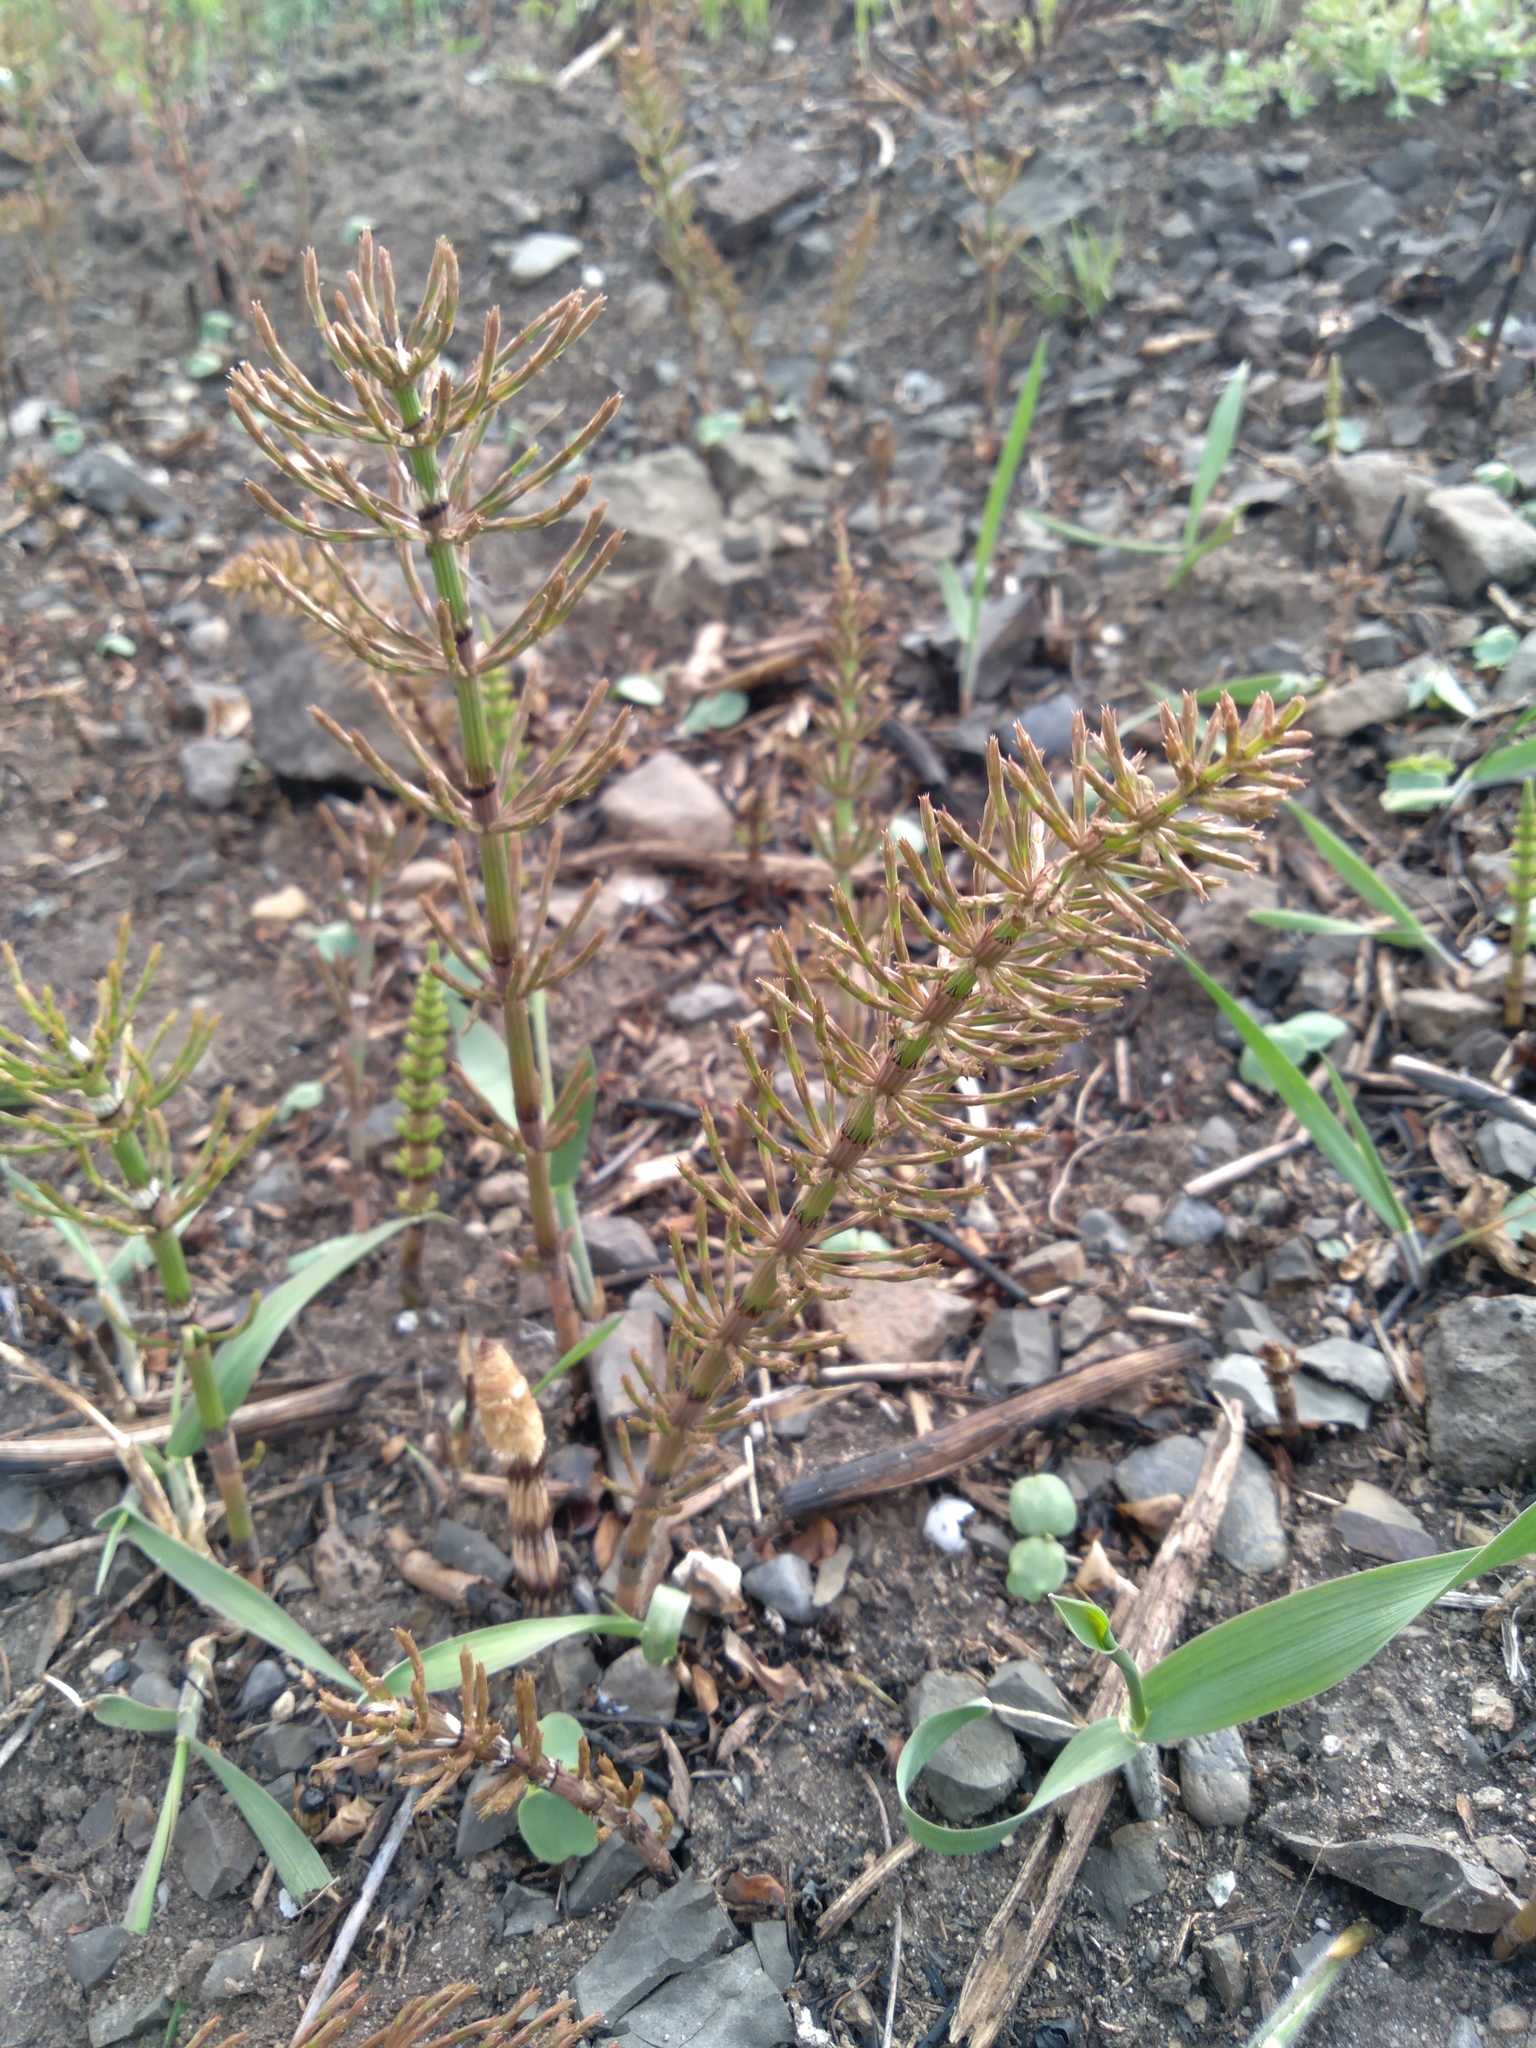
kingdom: Plantae
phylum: Tracheophyta
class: Polypodiopsida
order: Equisetales
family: Equisetaceae
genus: Equisetum
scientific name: Equisetum arvense
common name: Field horsetail
